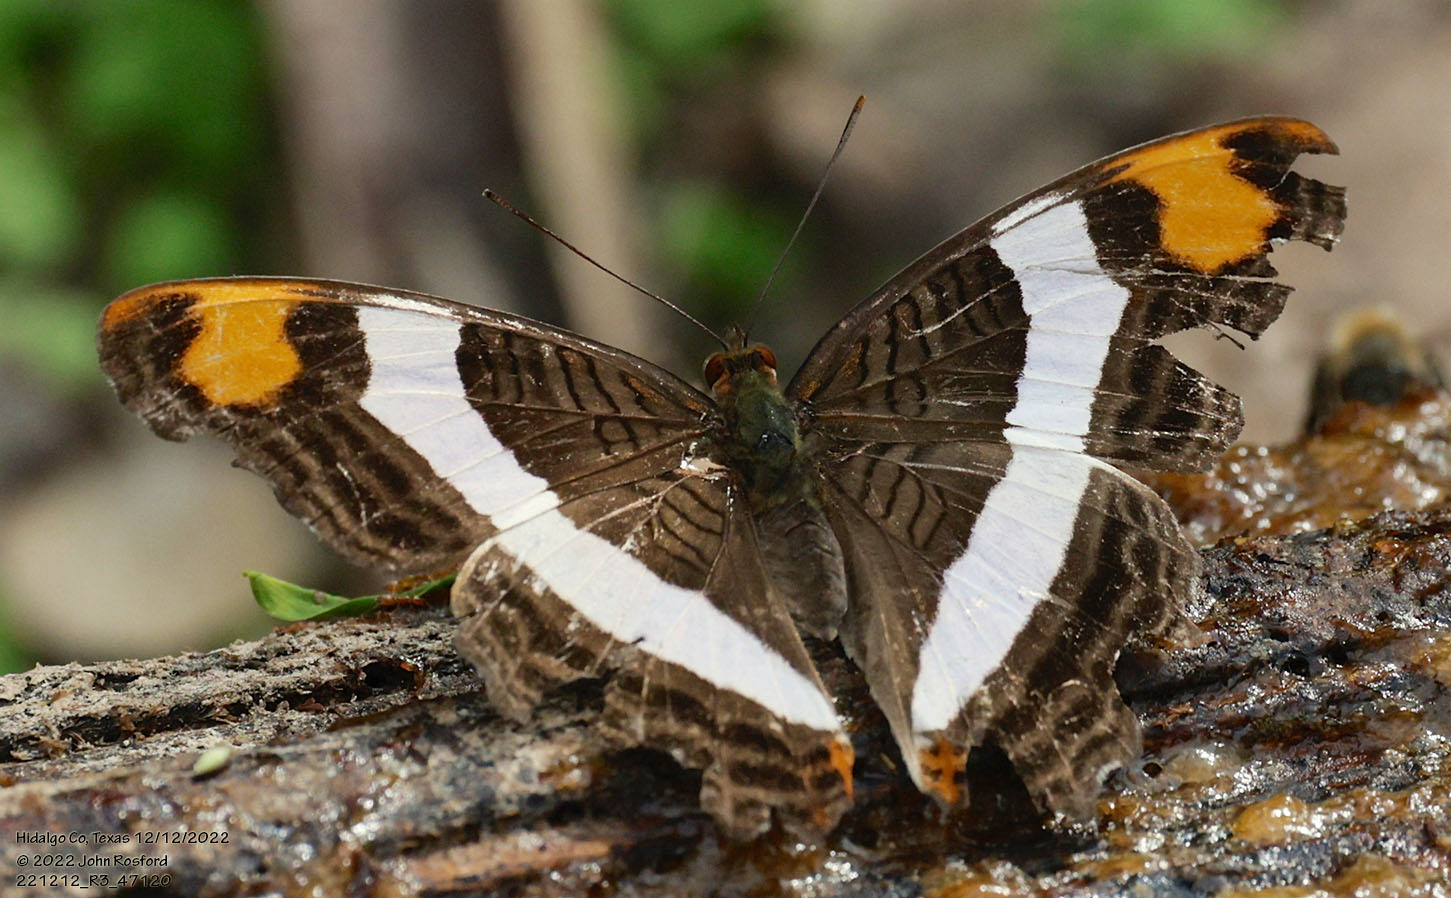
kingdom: Animalia
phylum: Arthropoda
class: Insecta
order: Lepidoptera
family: Nymphalidae
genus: Limenitis
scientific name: Limenitis fessonia
